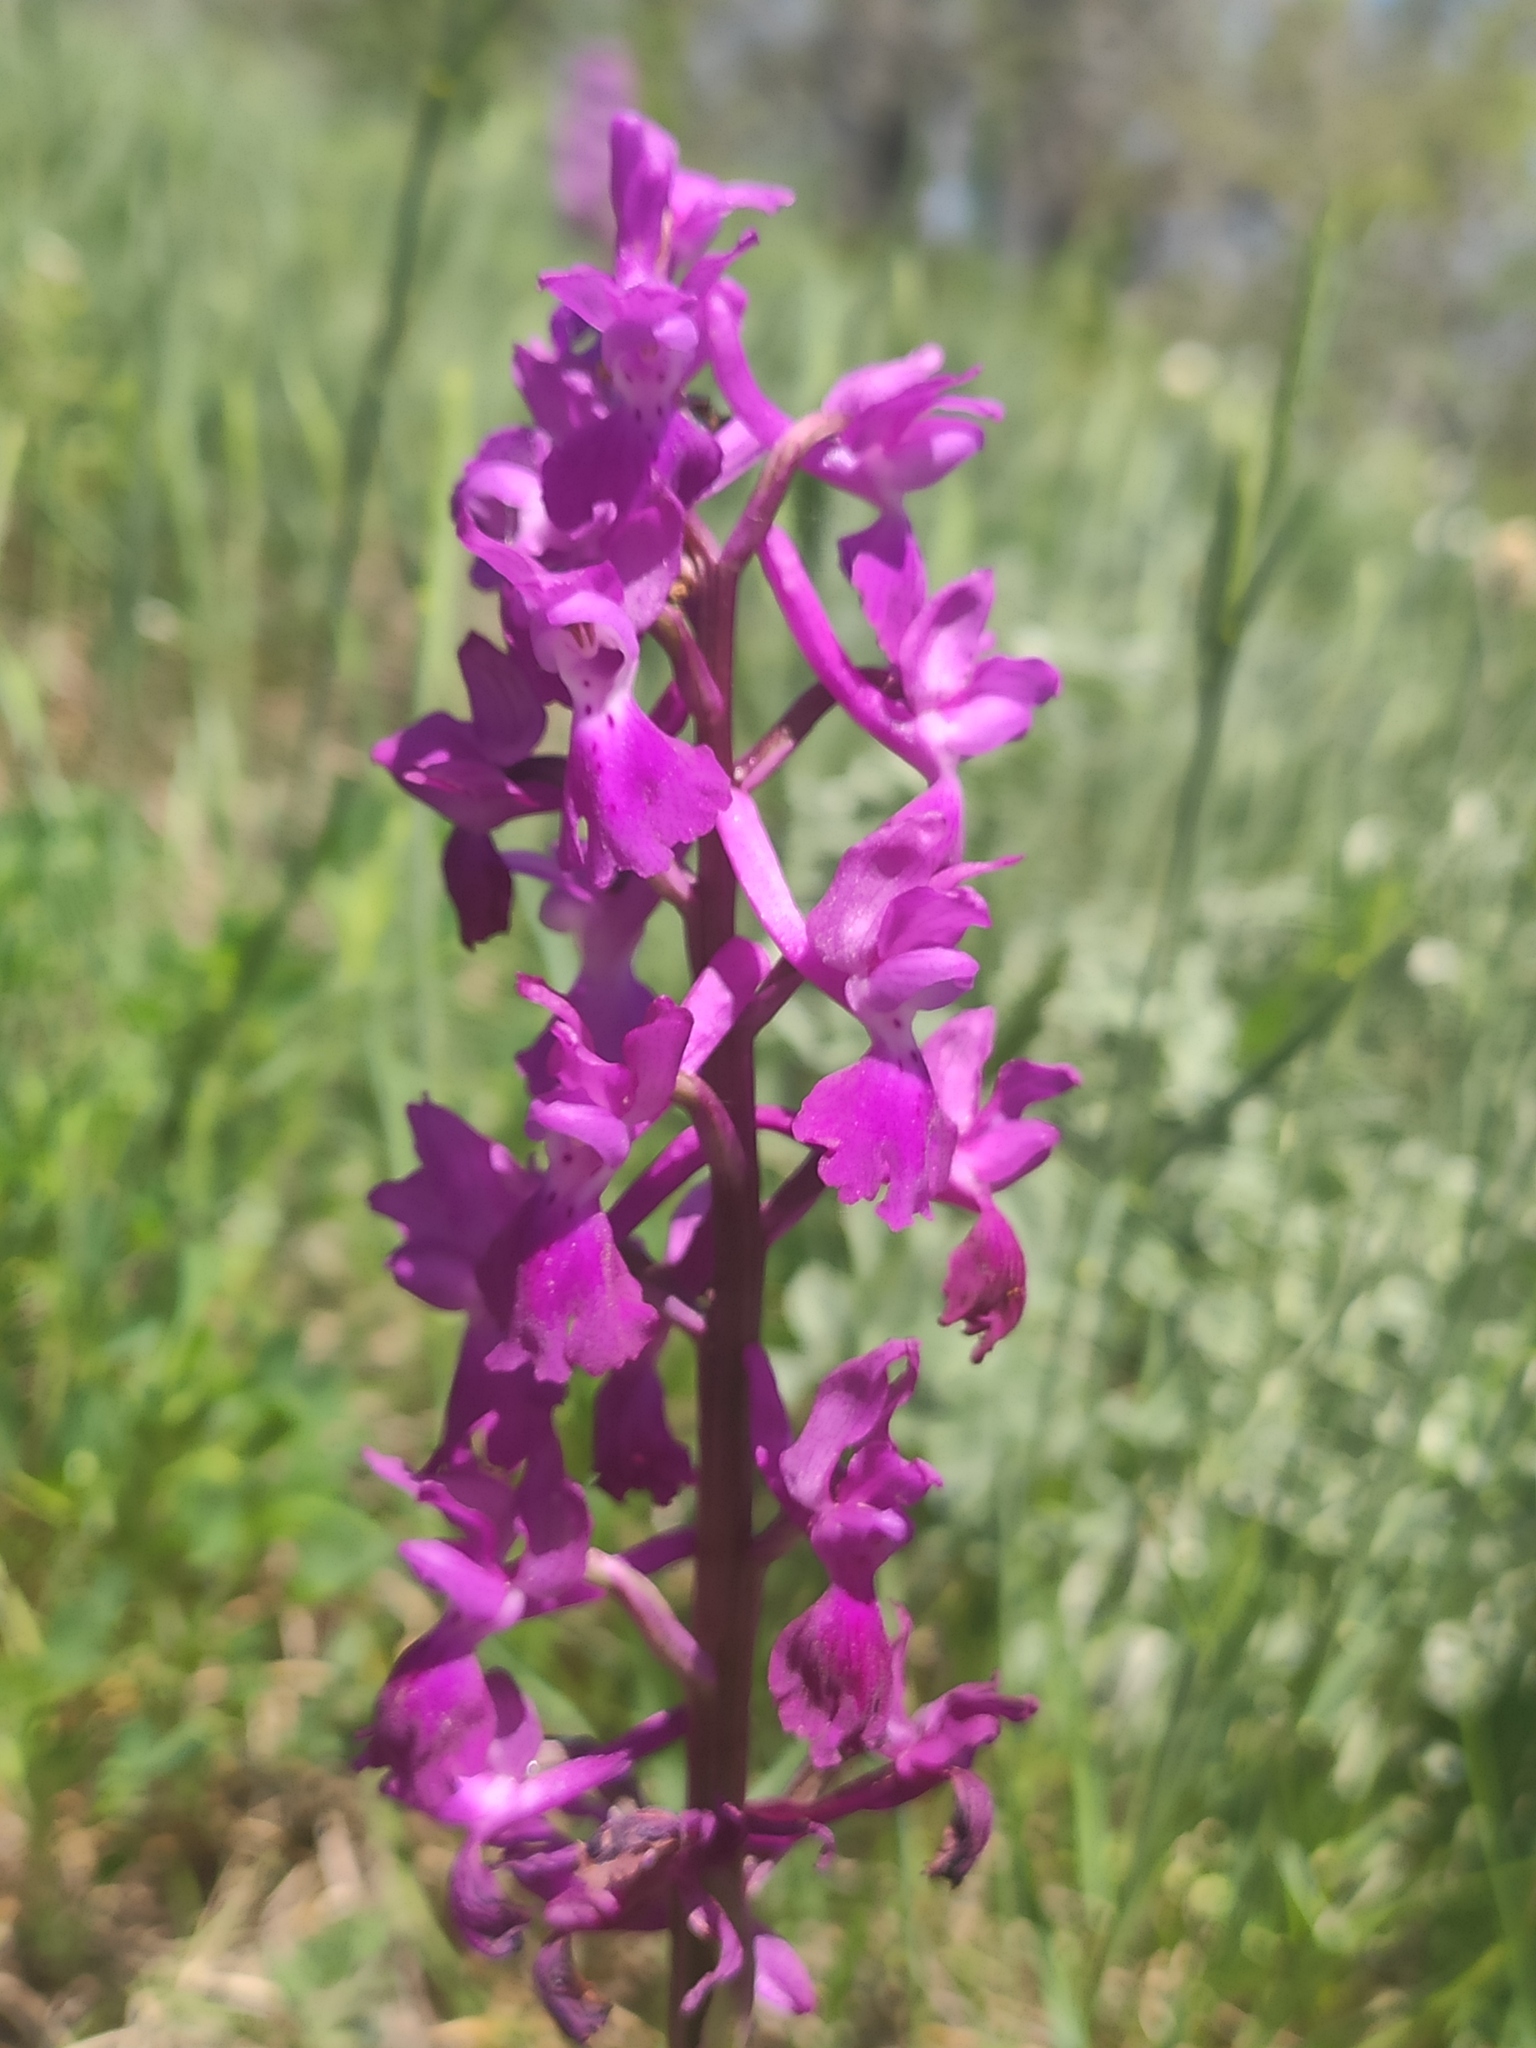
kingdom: Plantae
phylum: Tracheophyta
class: Liliopsida
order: Asparagales
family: Orchidaceae
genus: Orchis
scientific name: Orchis mascula
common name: Early-purple orchid
